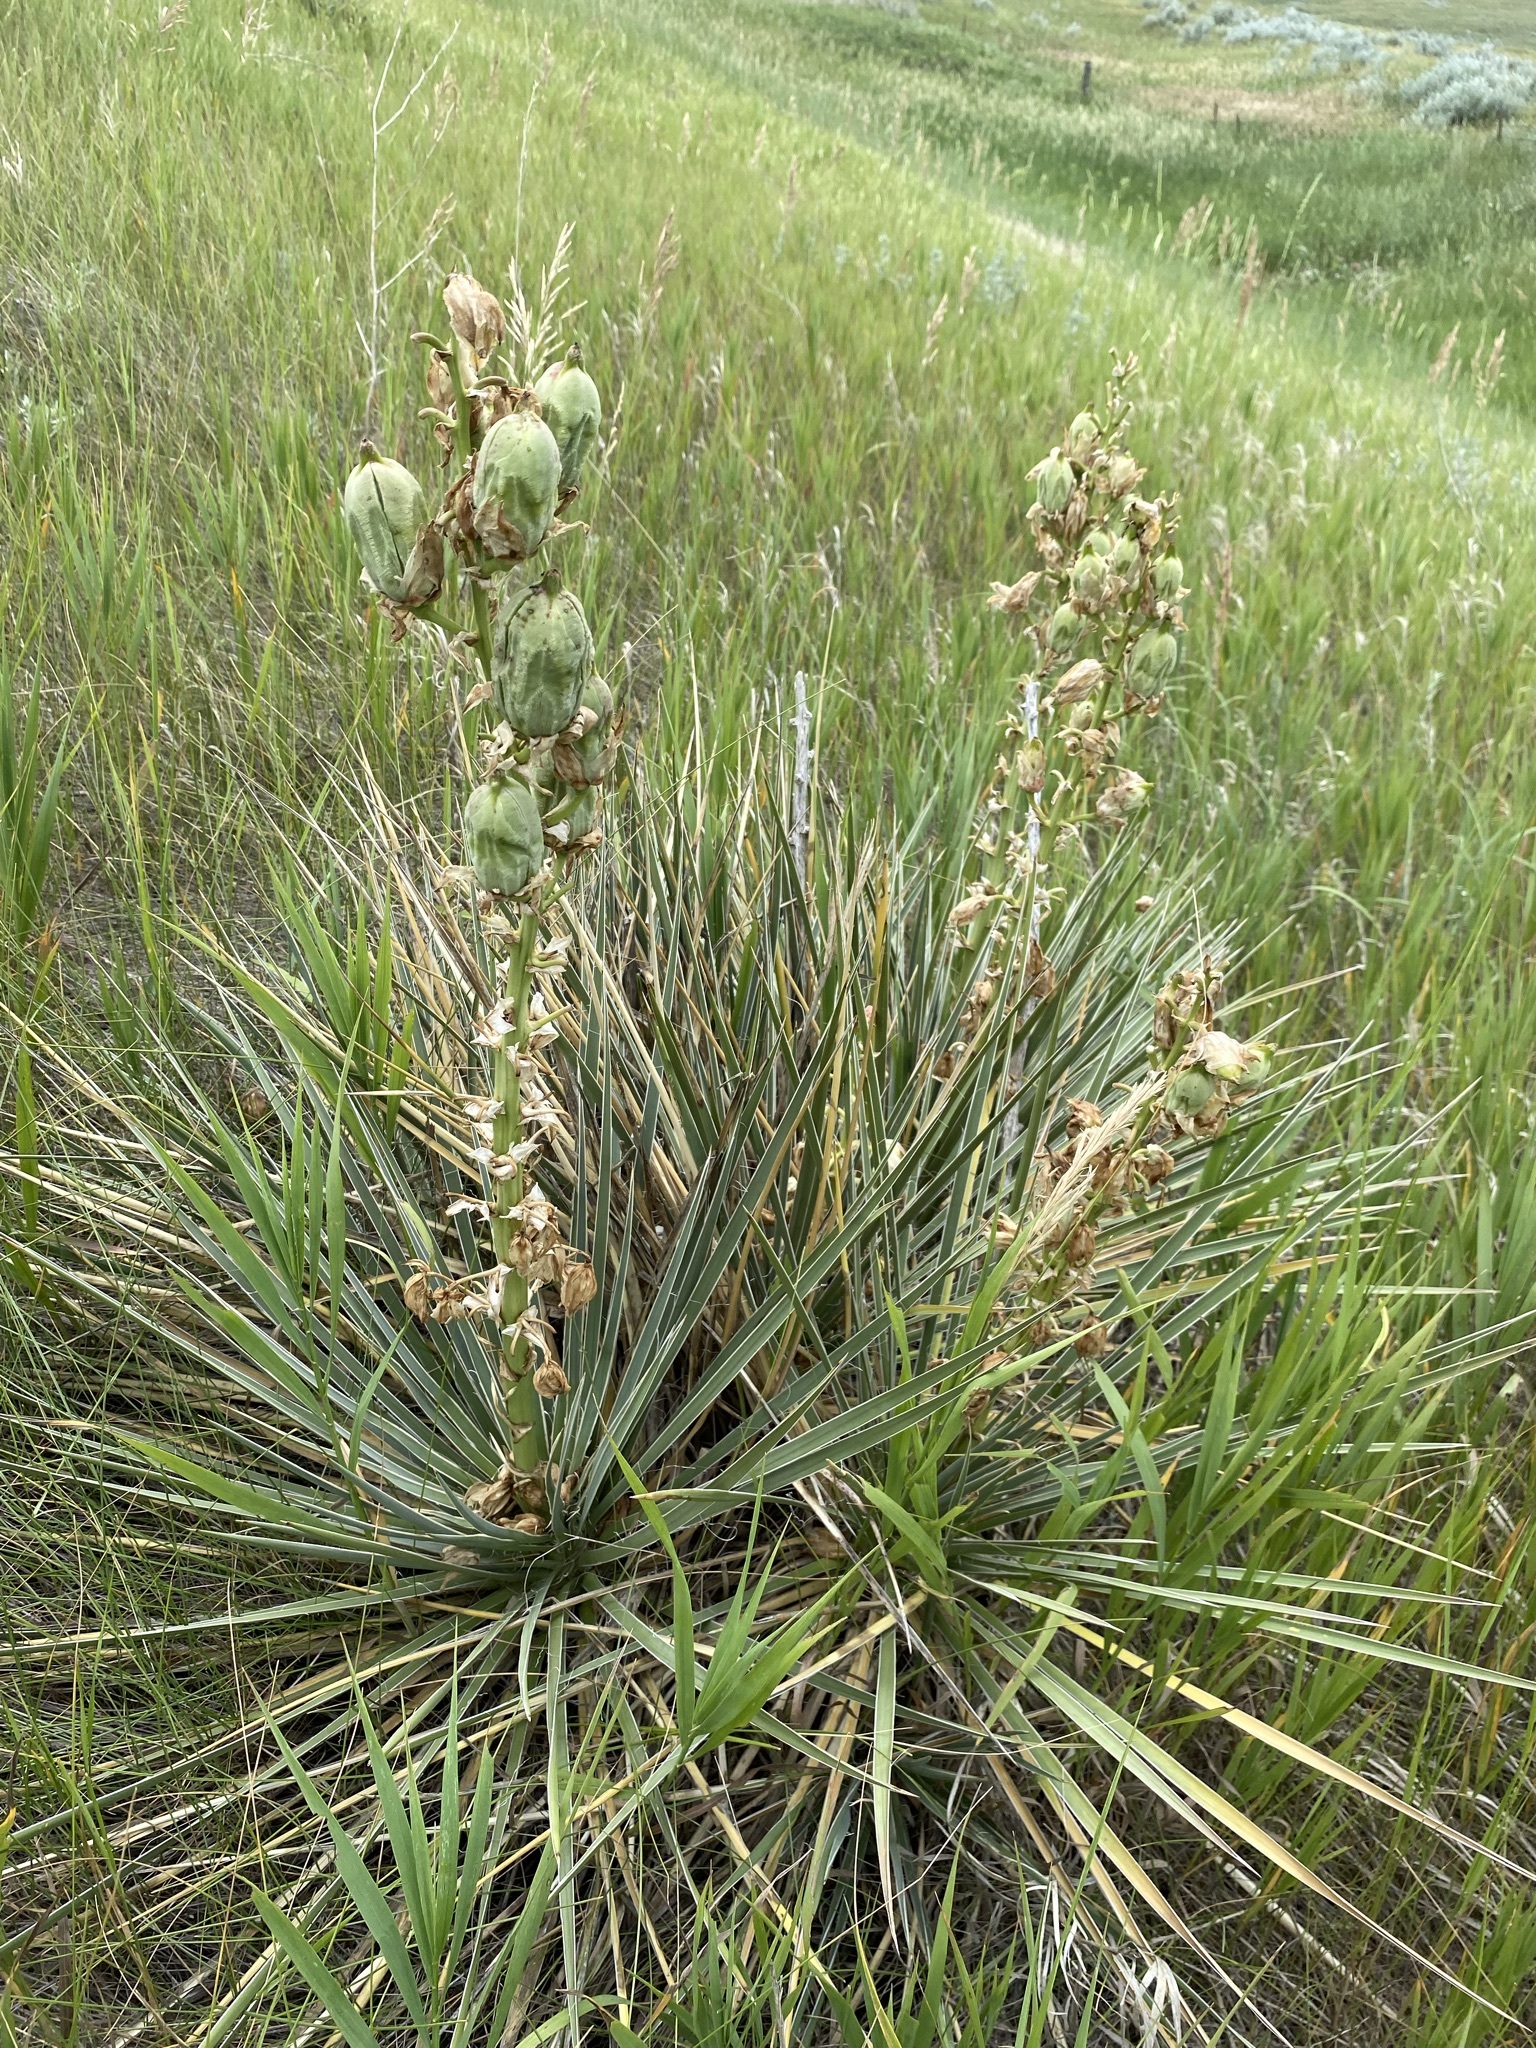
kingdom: Plantae
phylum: Tracheophyta
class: Liliopsida
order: Asparagales
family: Asparagaceae
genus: Yucca
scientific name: Yucca glauca
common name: Great plains yucca
